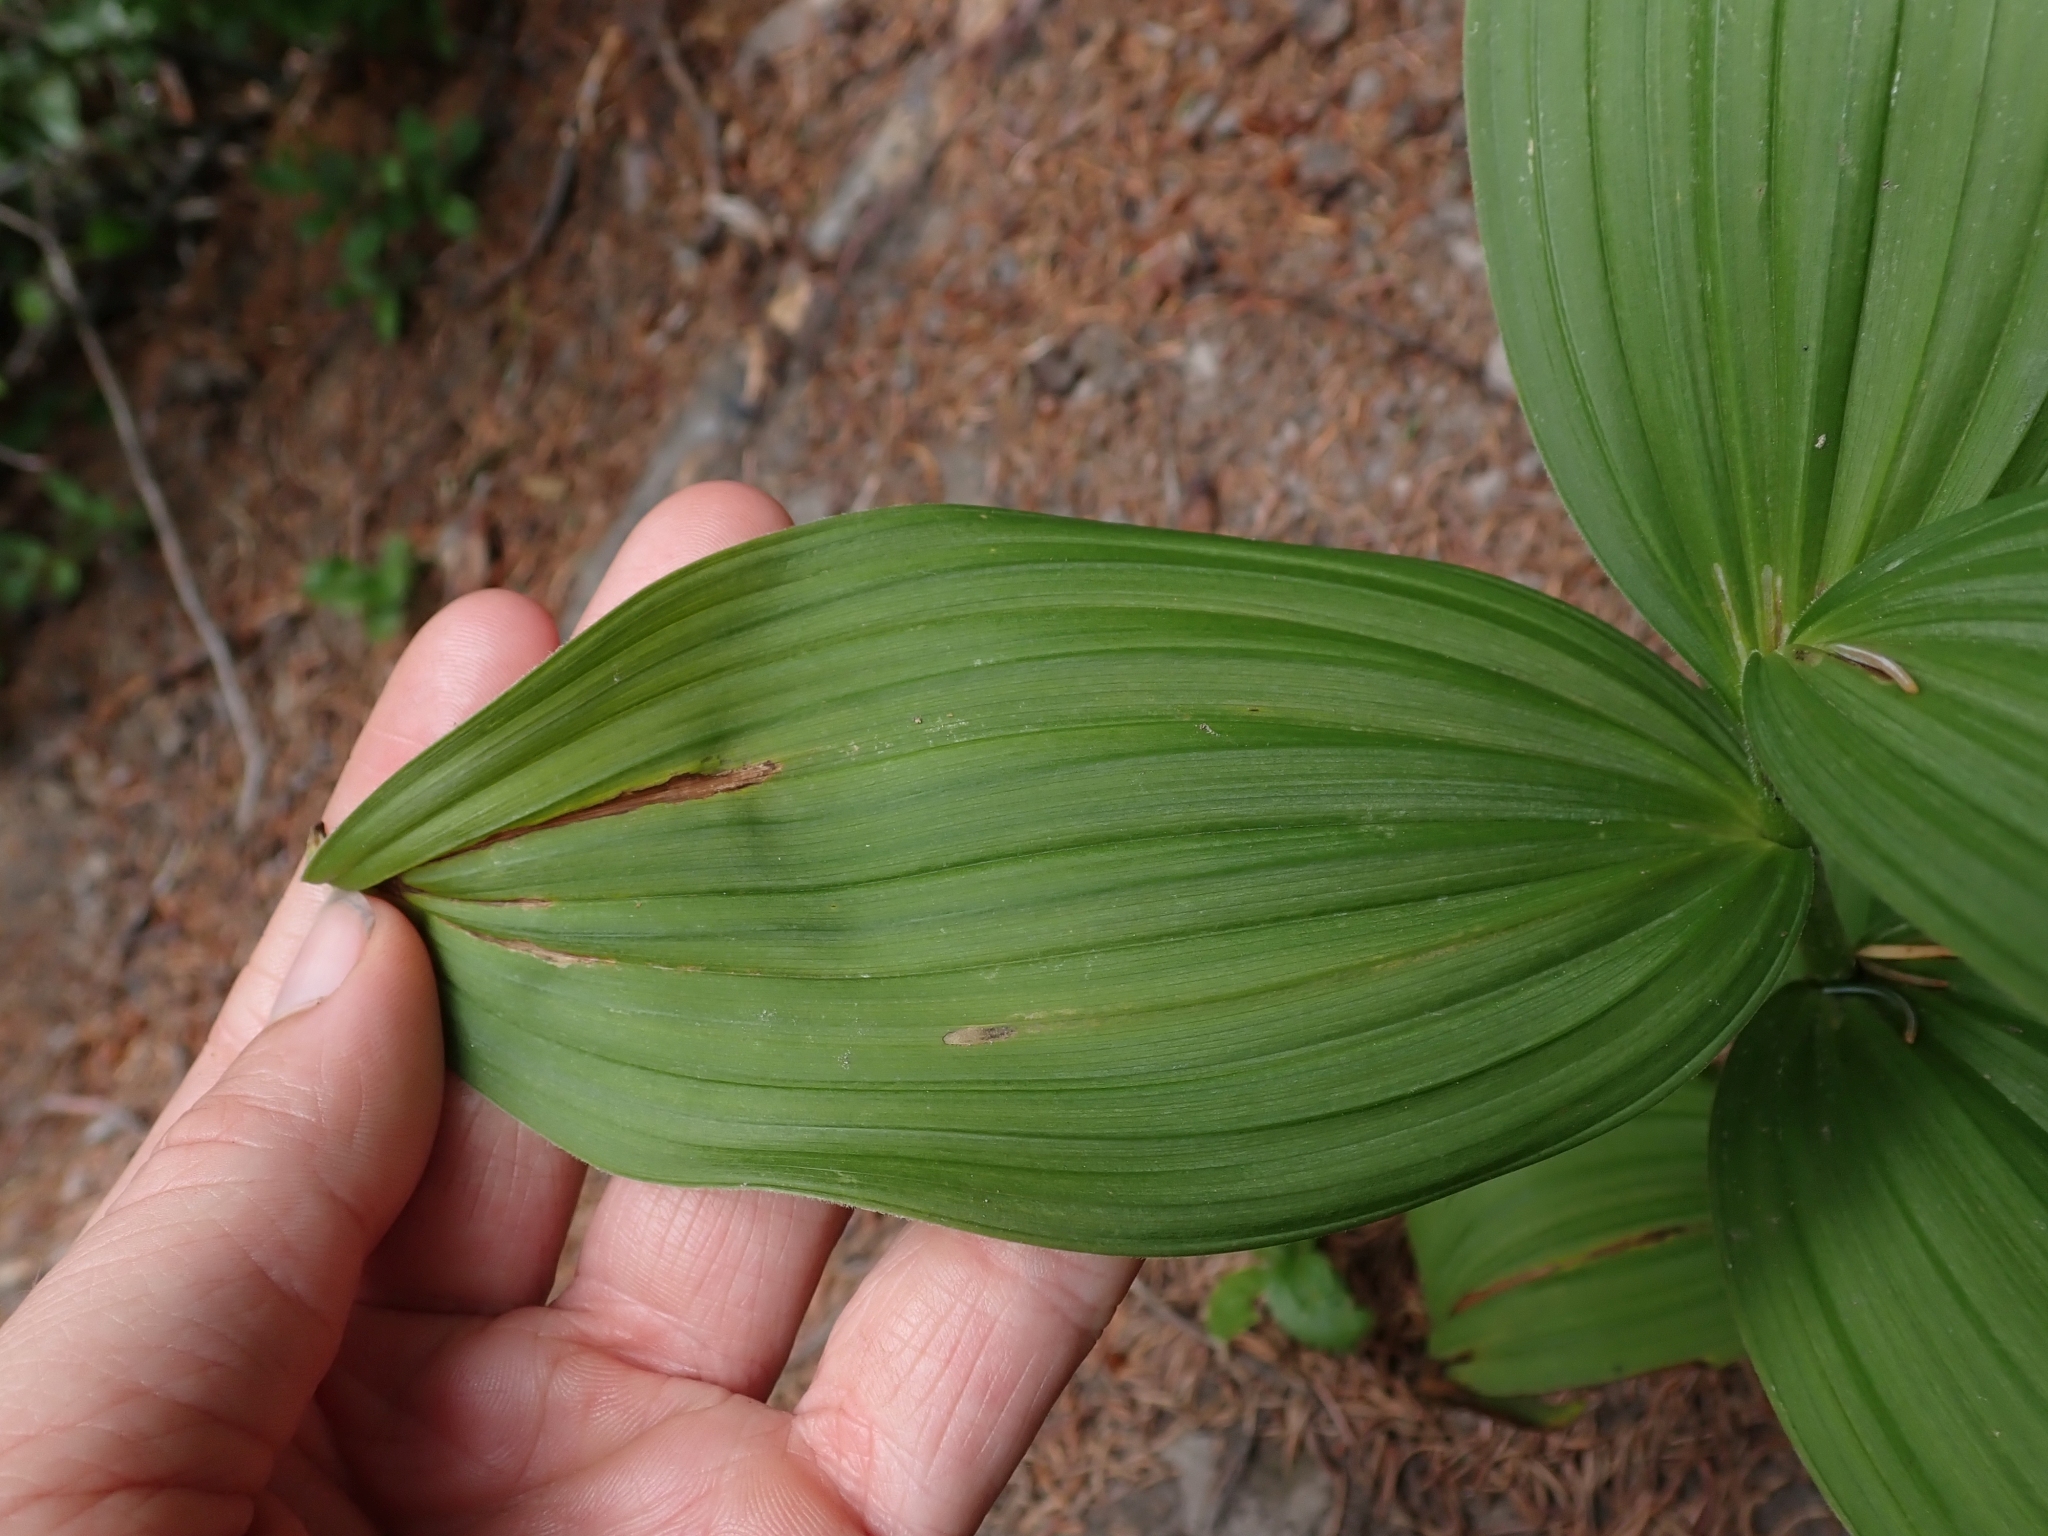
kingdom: Plantae
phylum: Tracheophyta
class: Liliopsida
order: Liliales
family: Melanthiaceae
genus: Veratrum
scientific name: Veratrum viride
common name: American false hellebore
